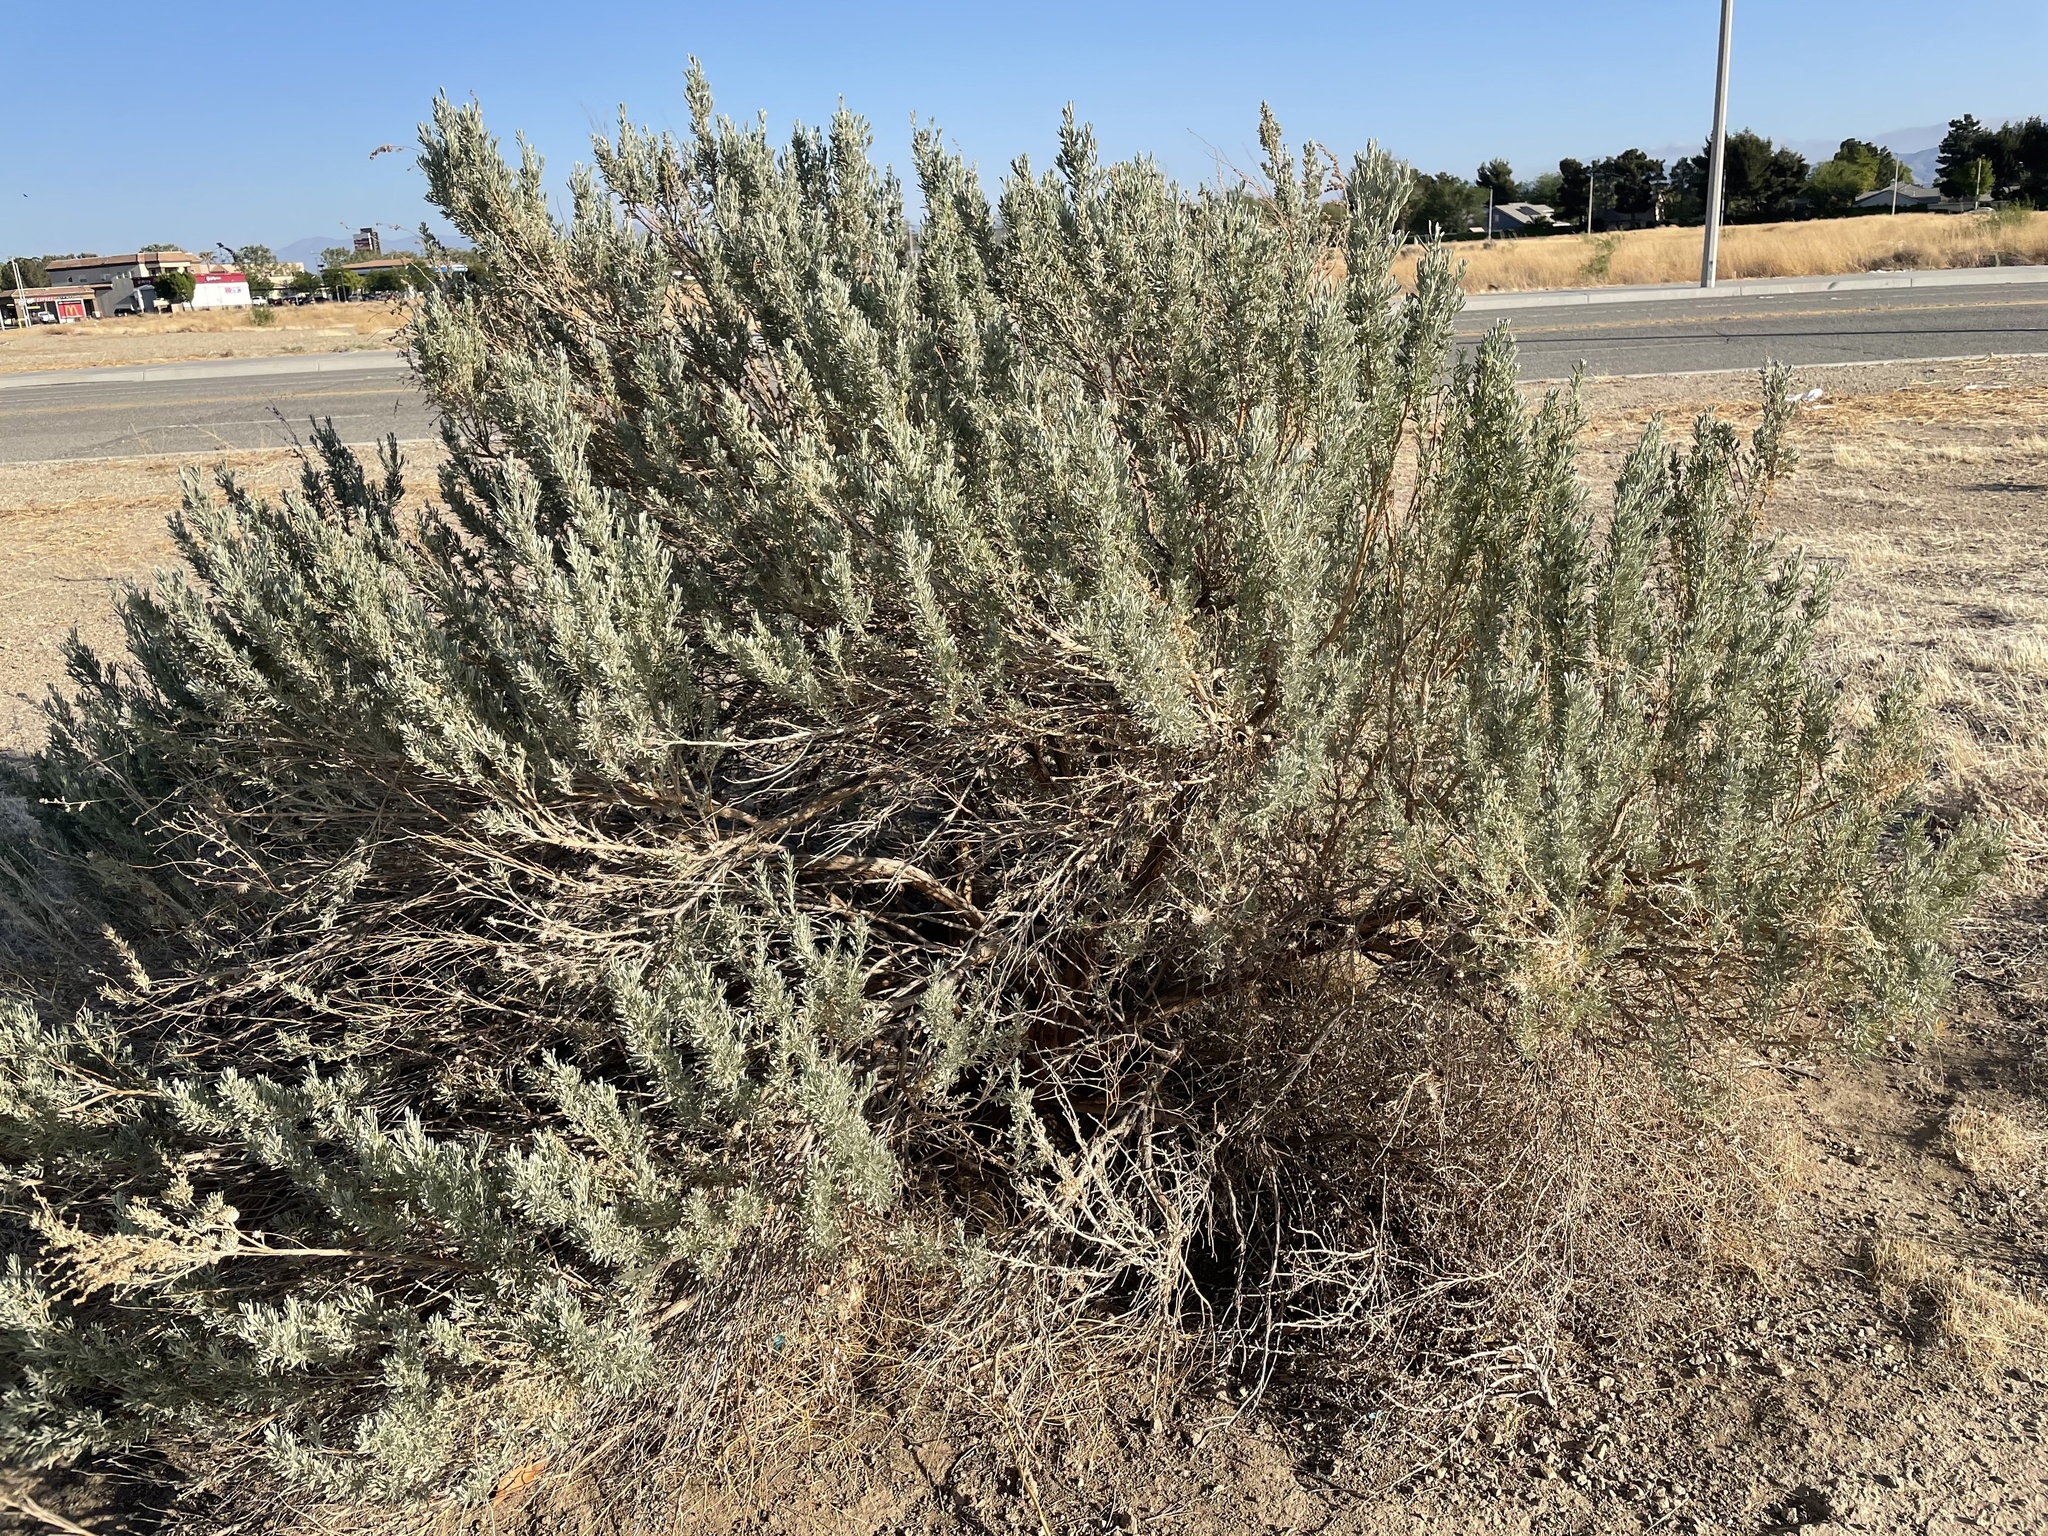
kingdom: Plantae
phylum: Tracheophyta
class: Magnoliopsida
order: Asterales
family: Asteraceae
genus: Artemisia
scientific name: Artemisia tridentata
